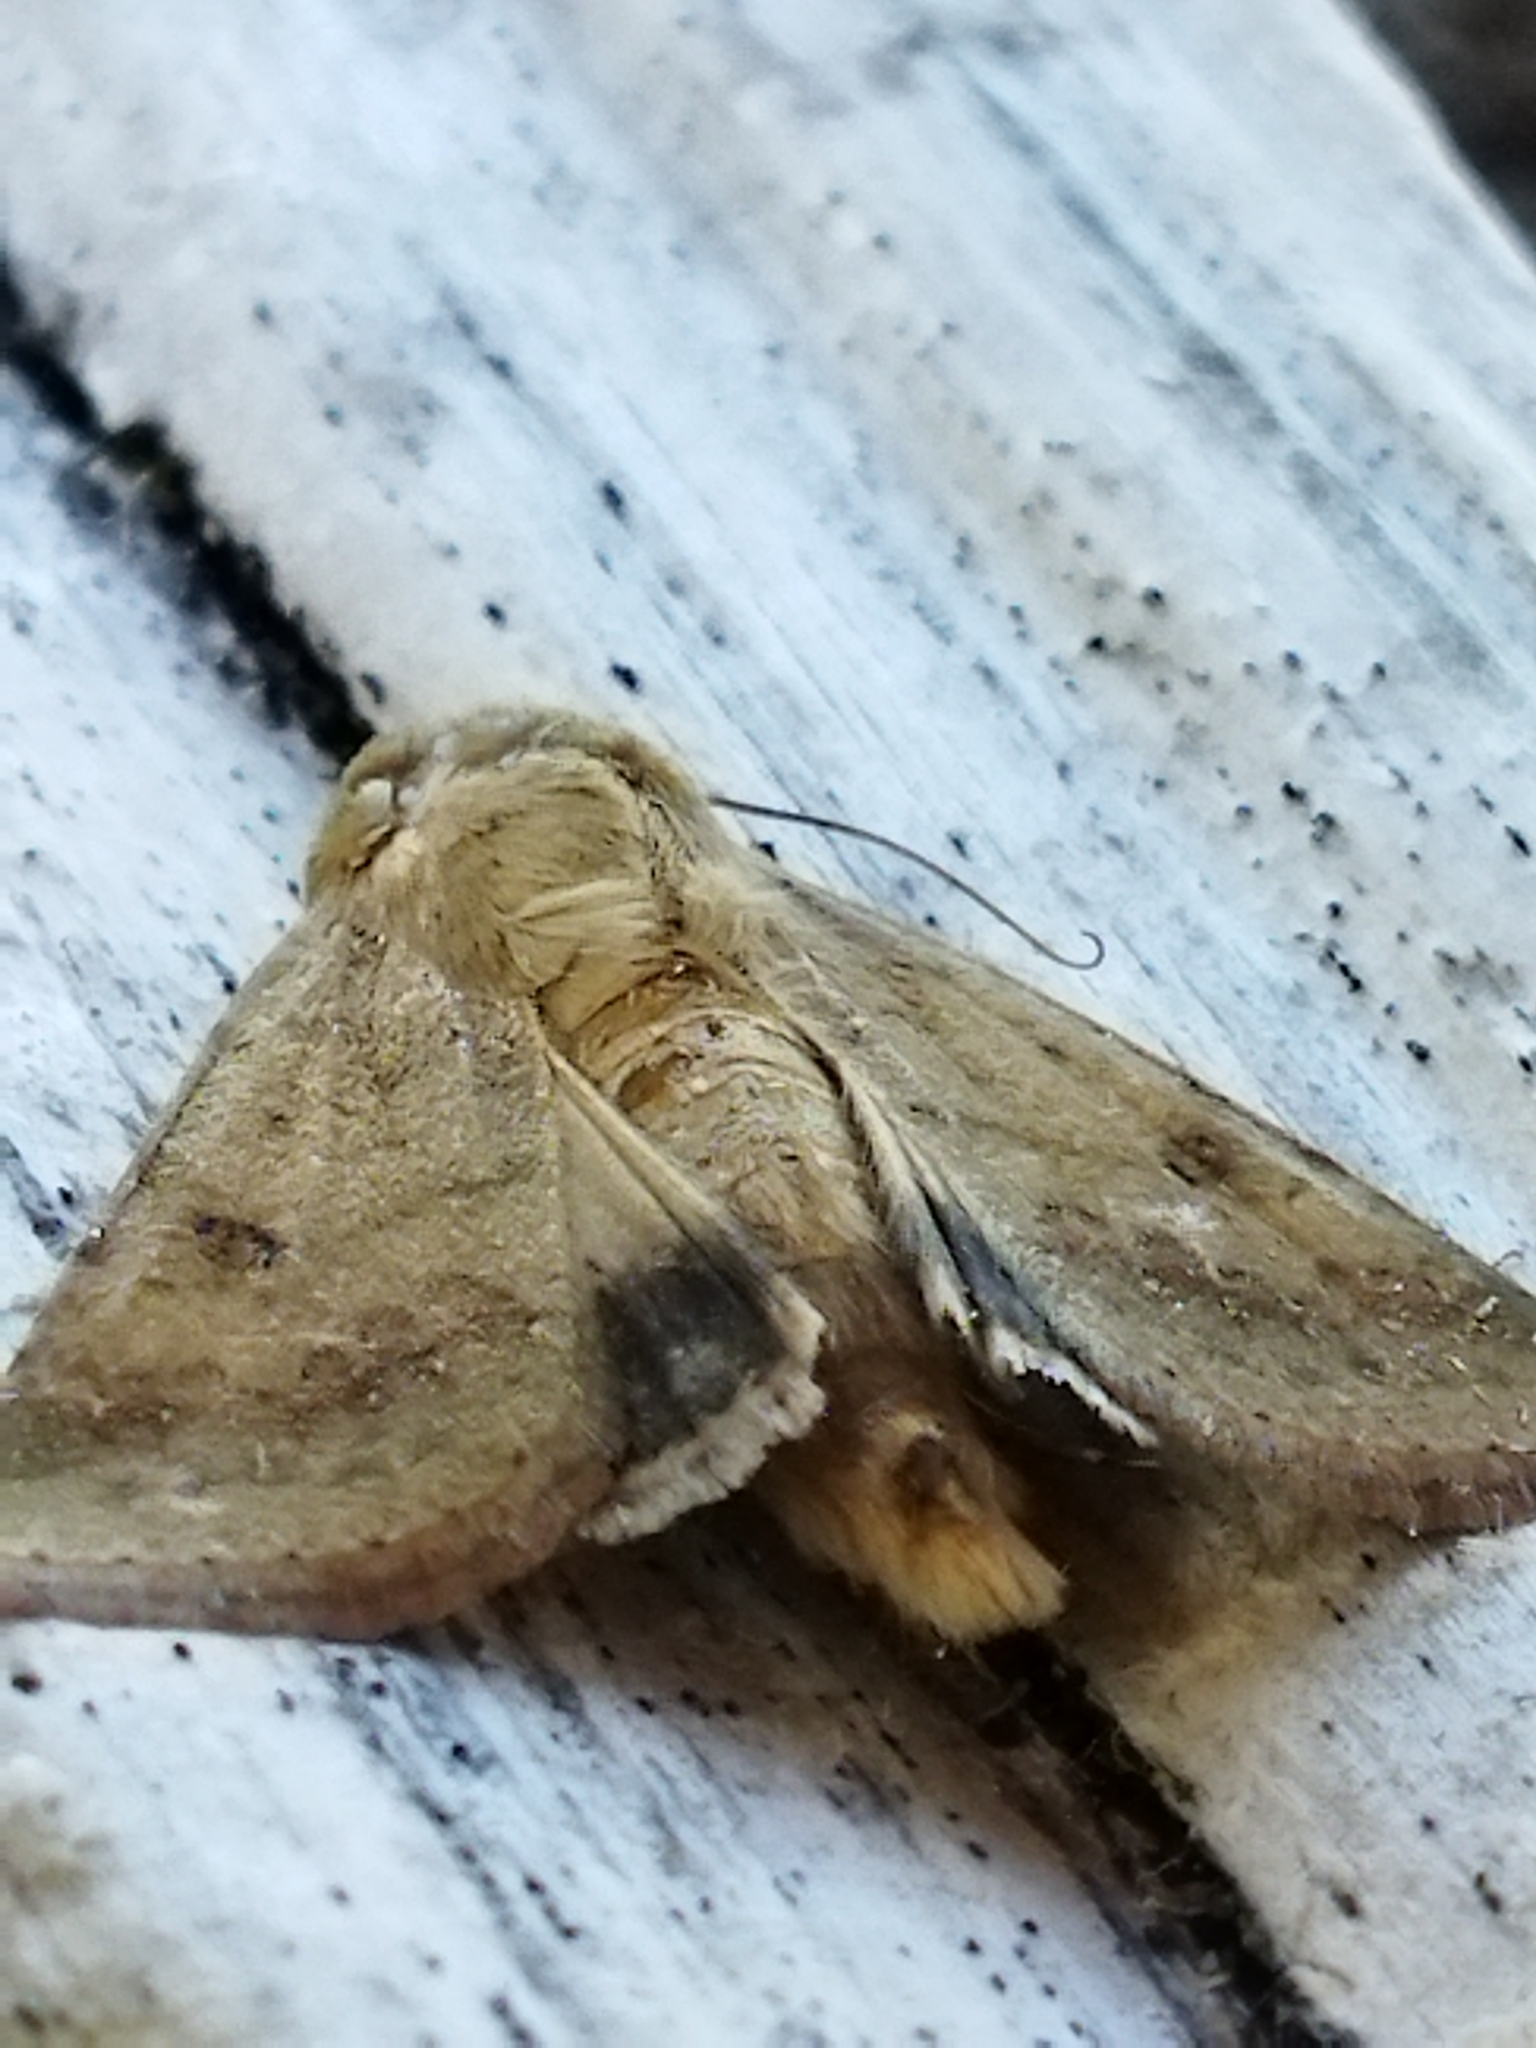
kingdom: Animalia
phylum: Arthropoda
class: Insecta
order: Lepidoptera
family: Noctuidae
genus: Helicoverpa
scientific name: Helicoverpa armigera
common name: Cotton bollworm
